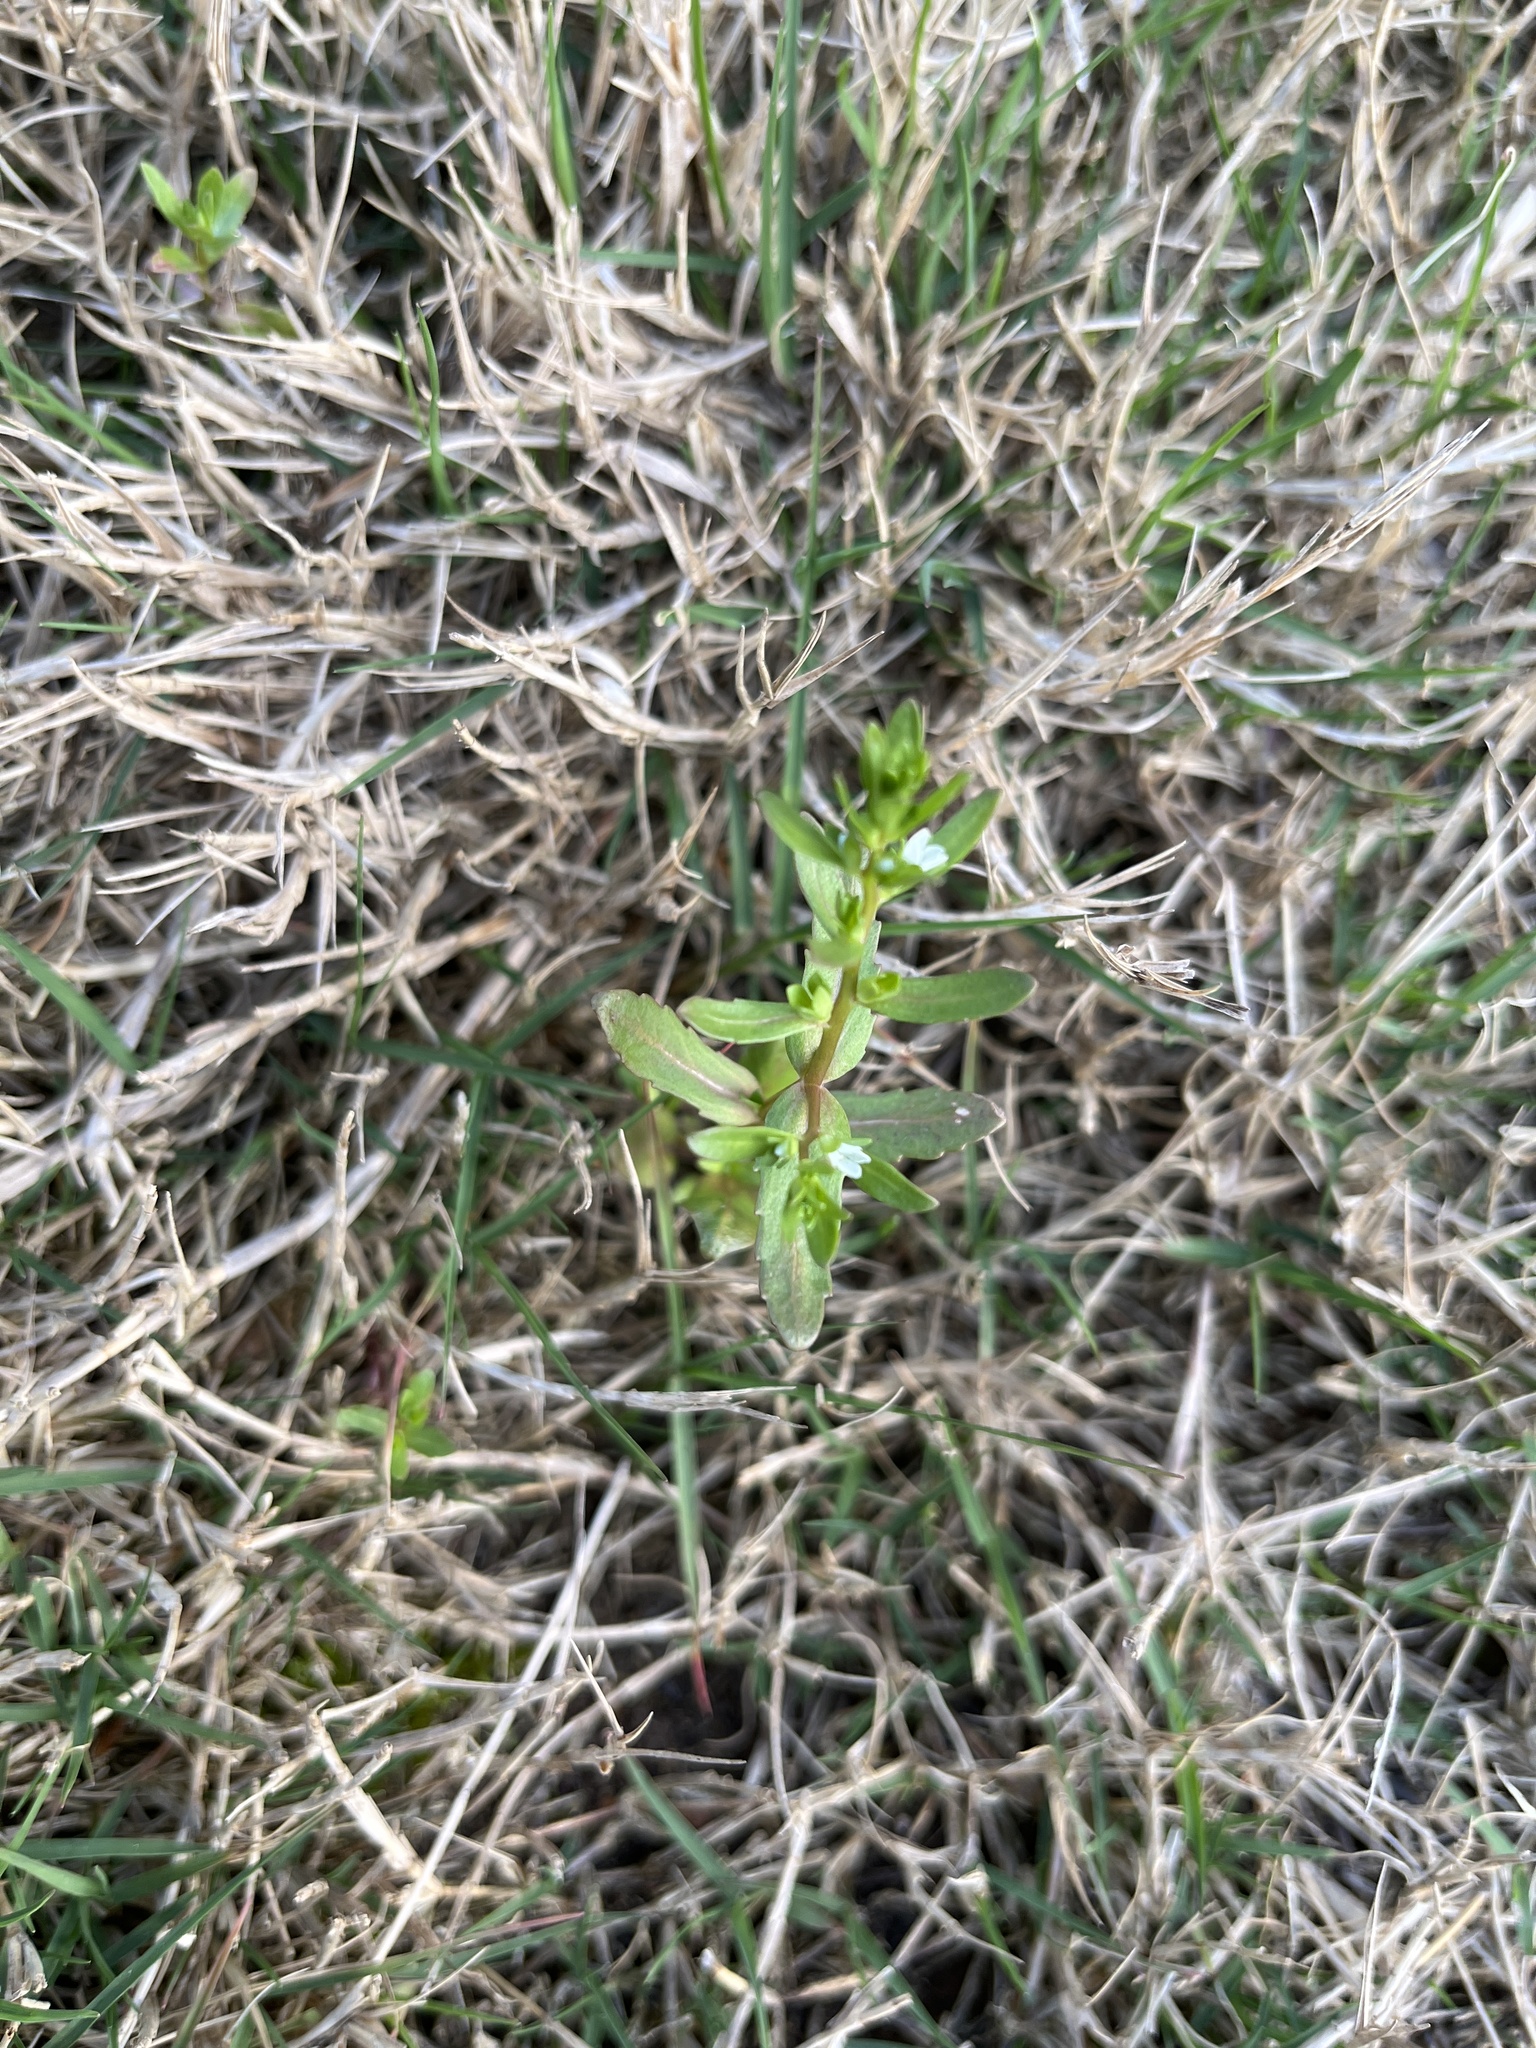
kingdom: Plantae
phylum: Tracheophyta
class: Magnoliopsida
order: Lamiales
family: Plantaginaceae
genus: Veronica
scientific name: Veronica peregrina
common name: Neckweed
